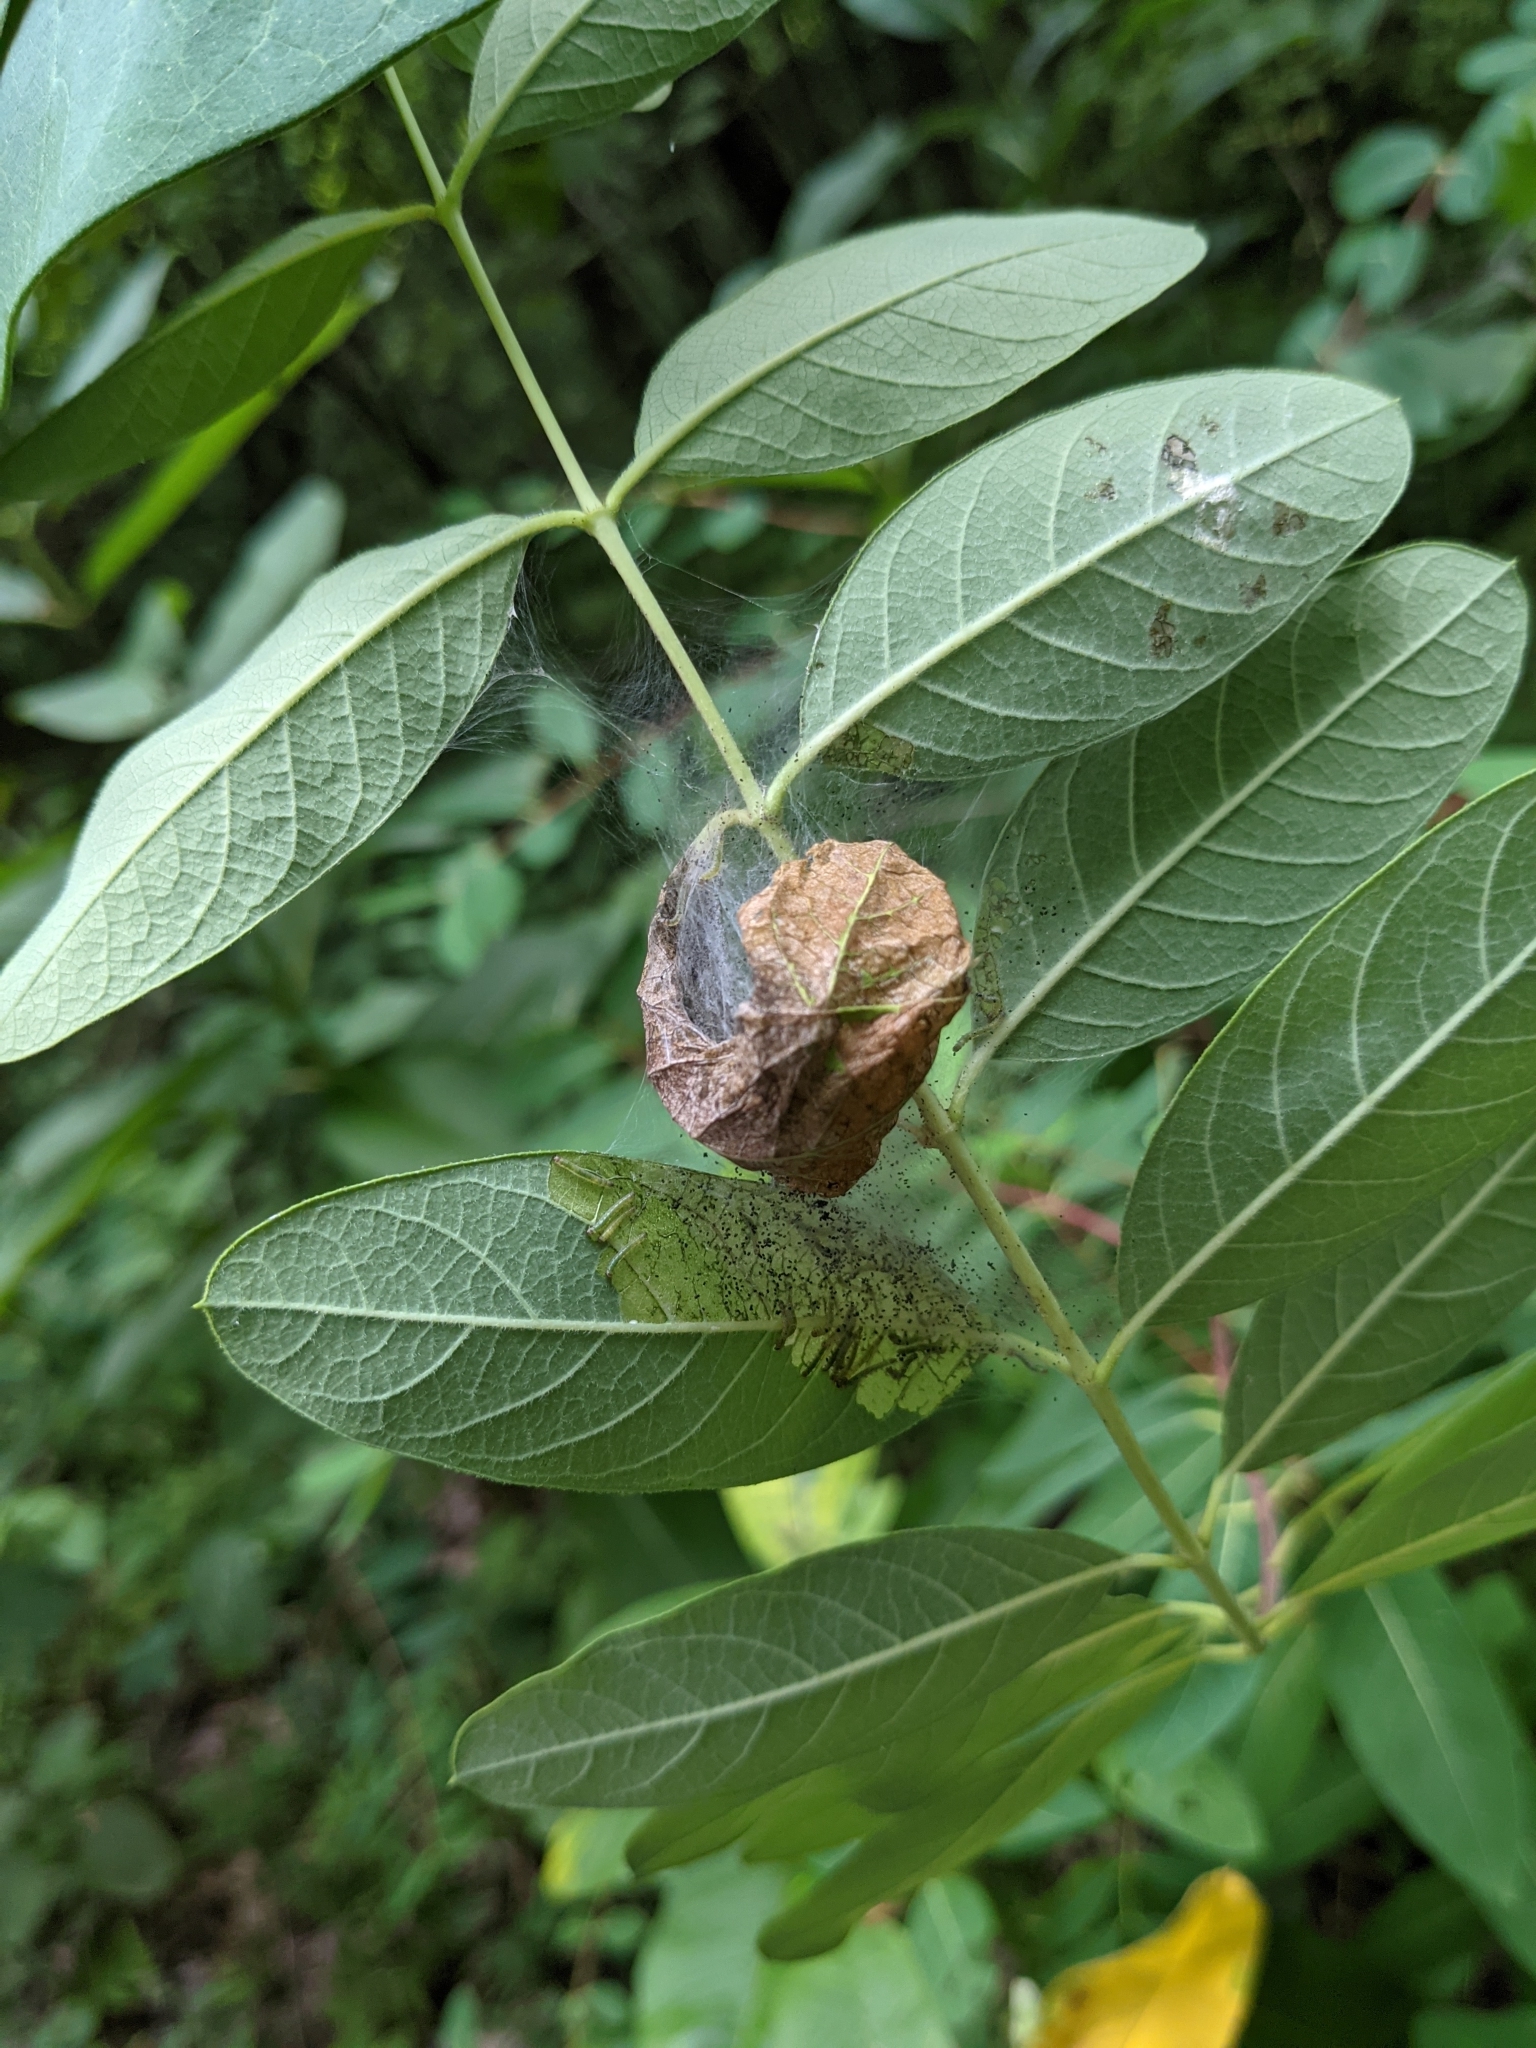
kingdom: Animalia
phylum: Arthropoda
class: Insecta
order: Lepidoptera
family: Crambidae
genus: Saucrobotys
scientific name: Saucrobotys futilalis
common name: Dogbane saucrobotys moth
